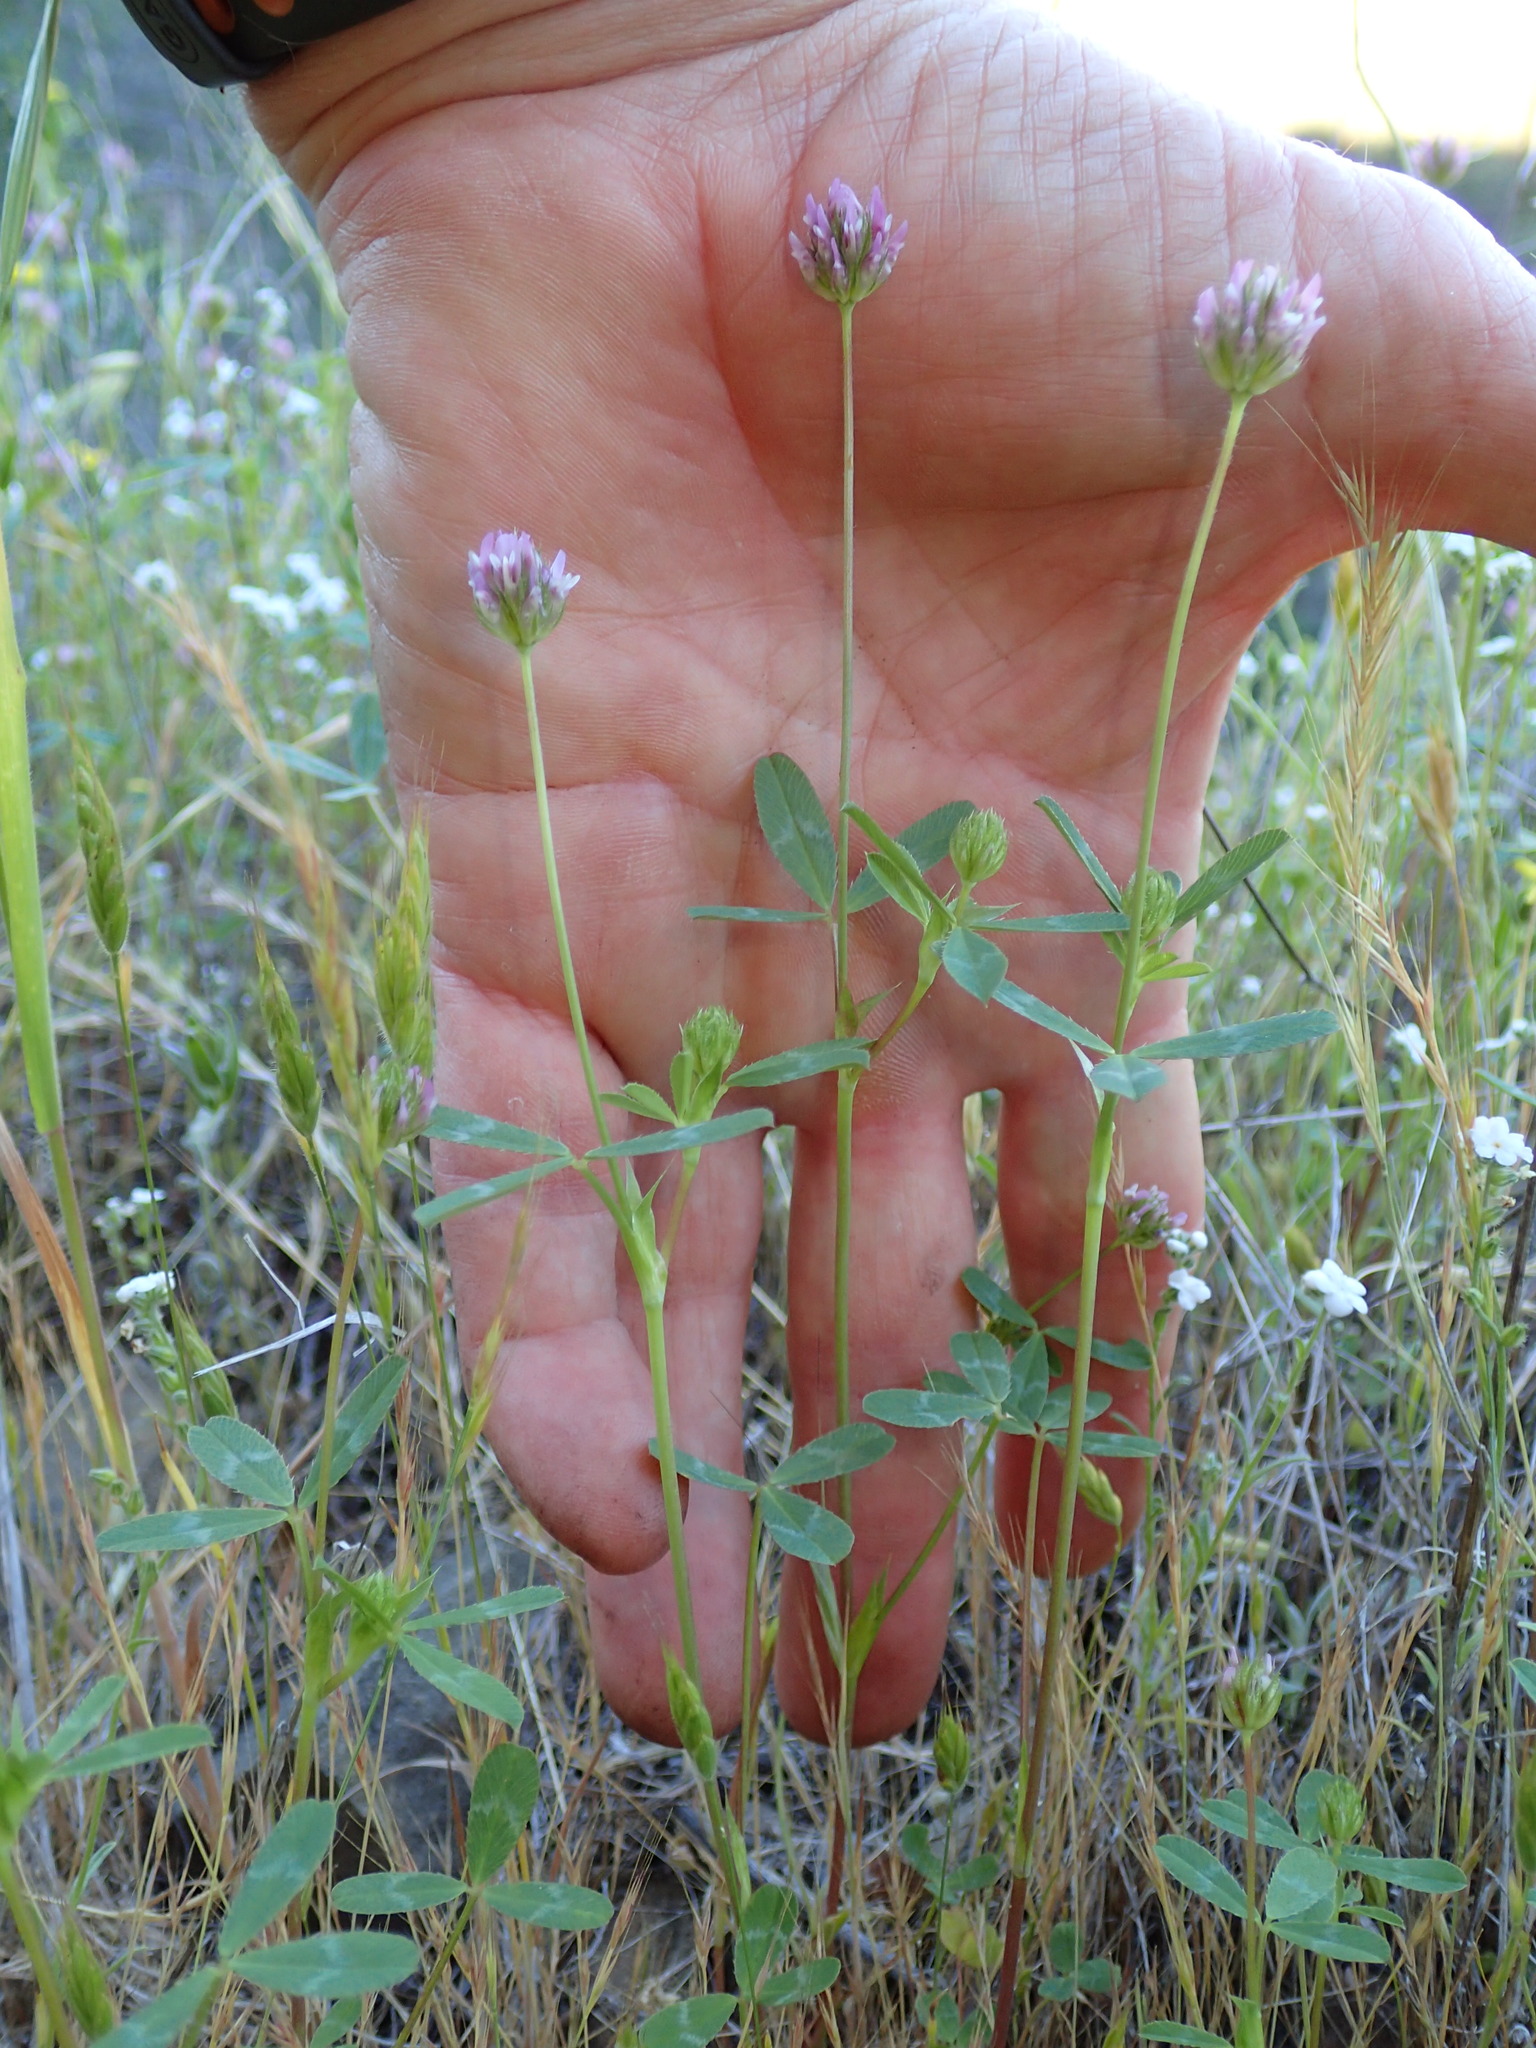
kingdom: Plantae
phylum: Tracheophyta
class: Magnoliopsida
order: Fabales
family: Fabaceae
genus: Trifolium
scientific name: Trifolium ciliolatum
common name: Foothill clover
